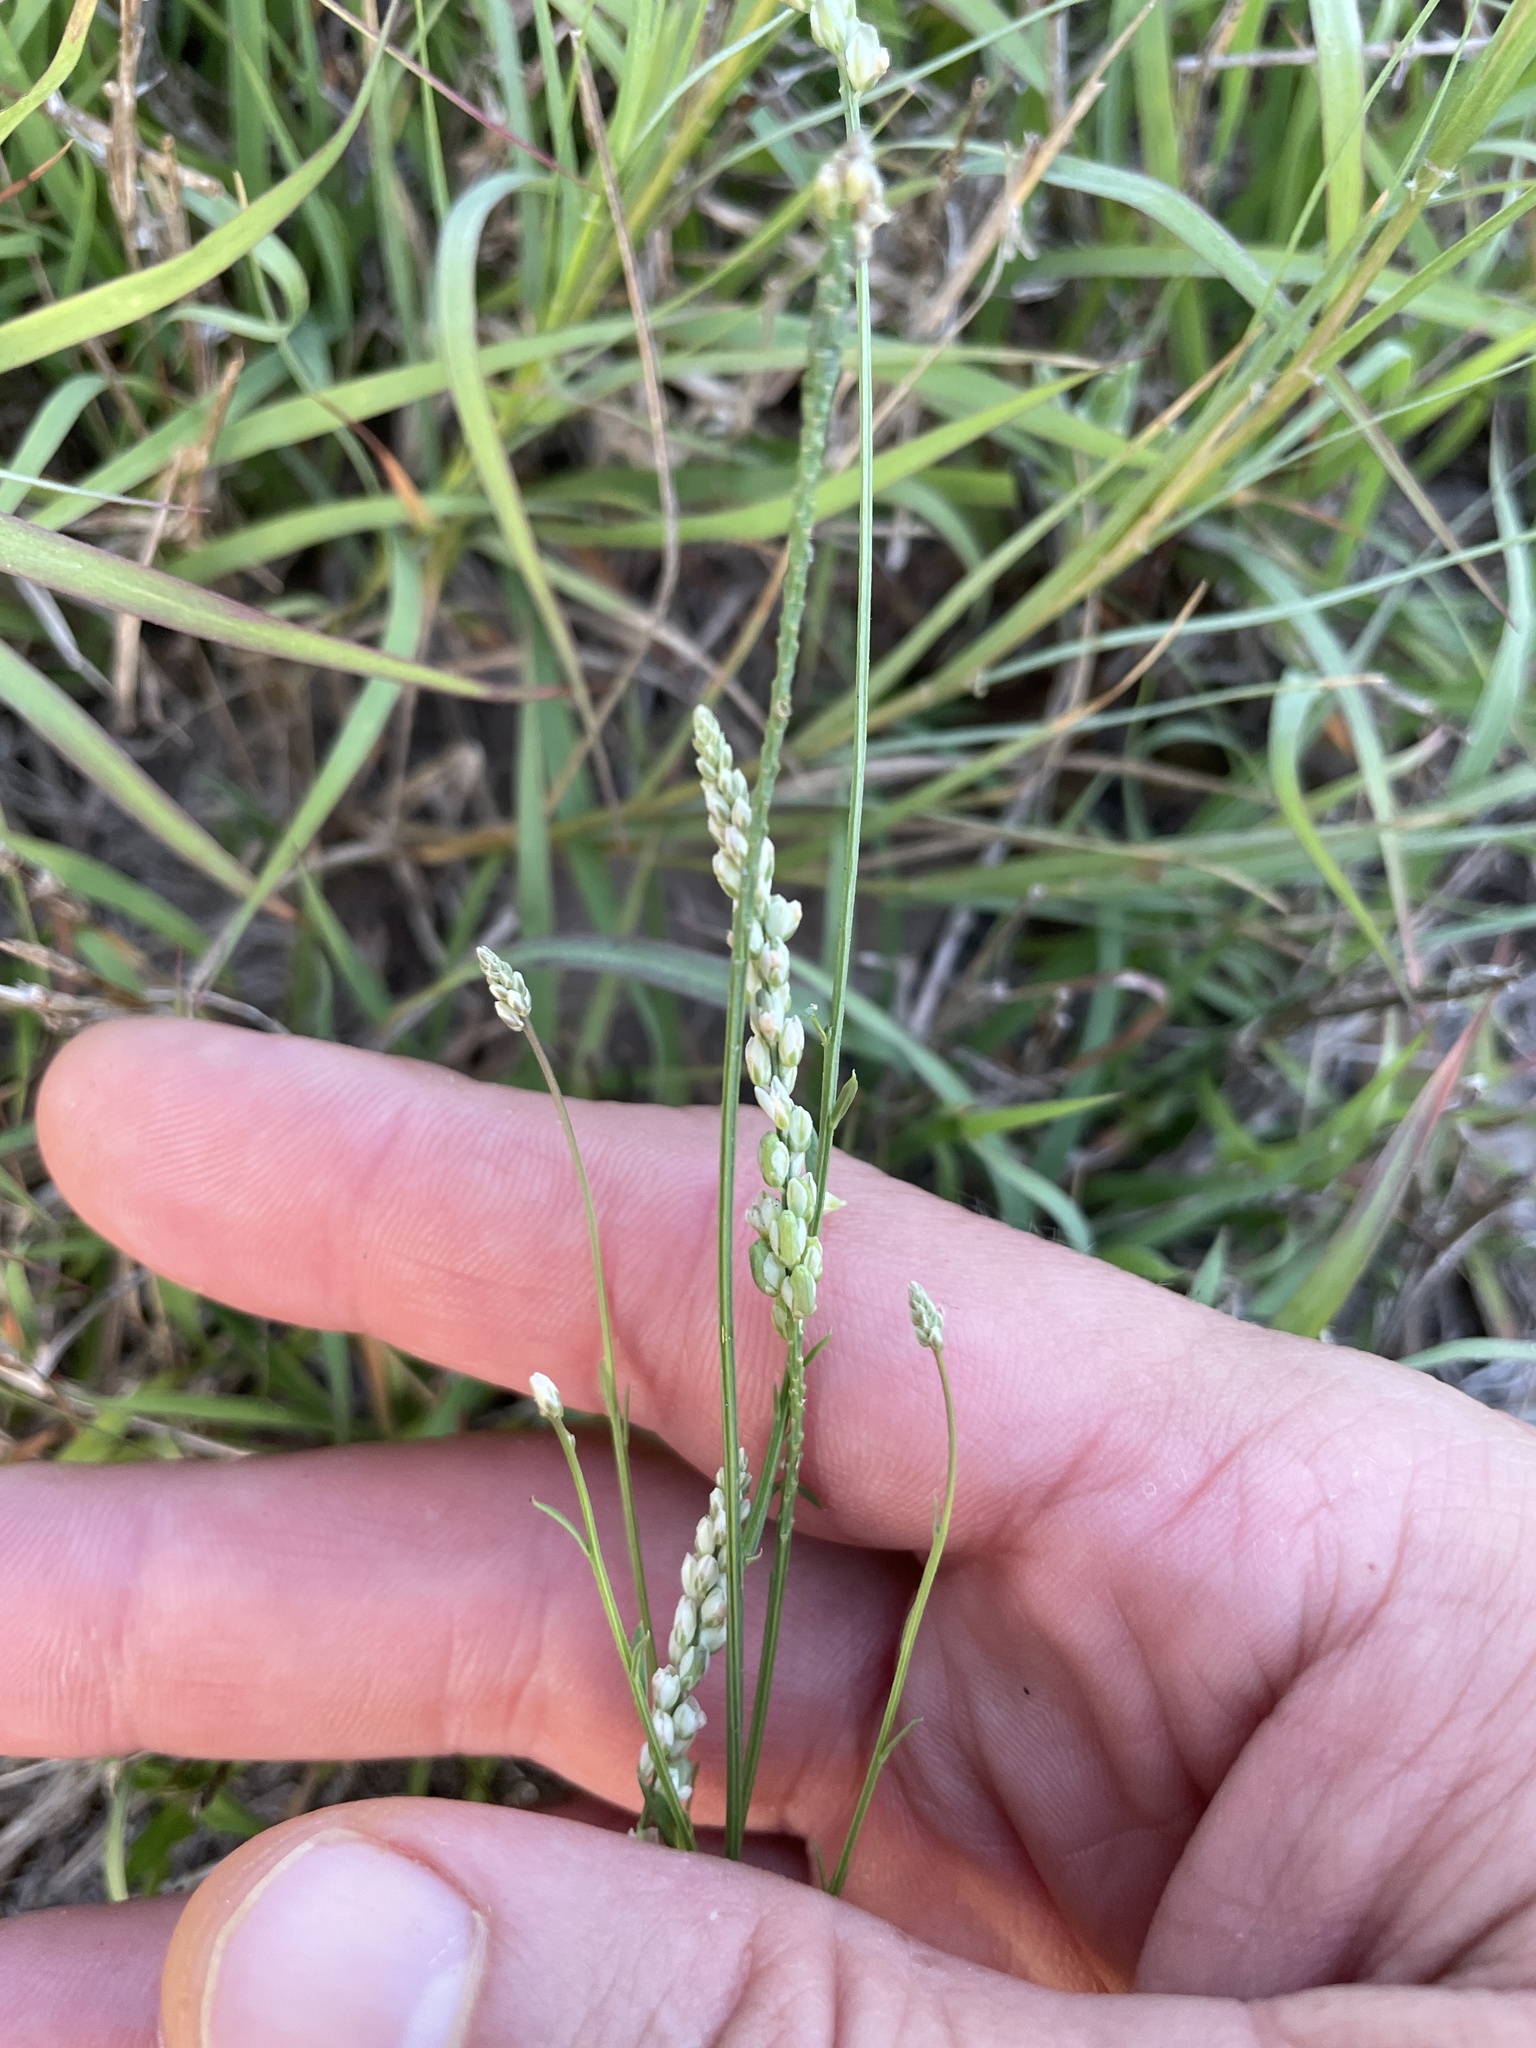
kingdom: Plantae
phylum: Tracheophyta
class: Magnoliopsida
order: Fabales
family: Polygalaceae
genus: Polygala
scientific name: Polygala alba
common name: White milkwort
